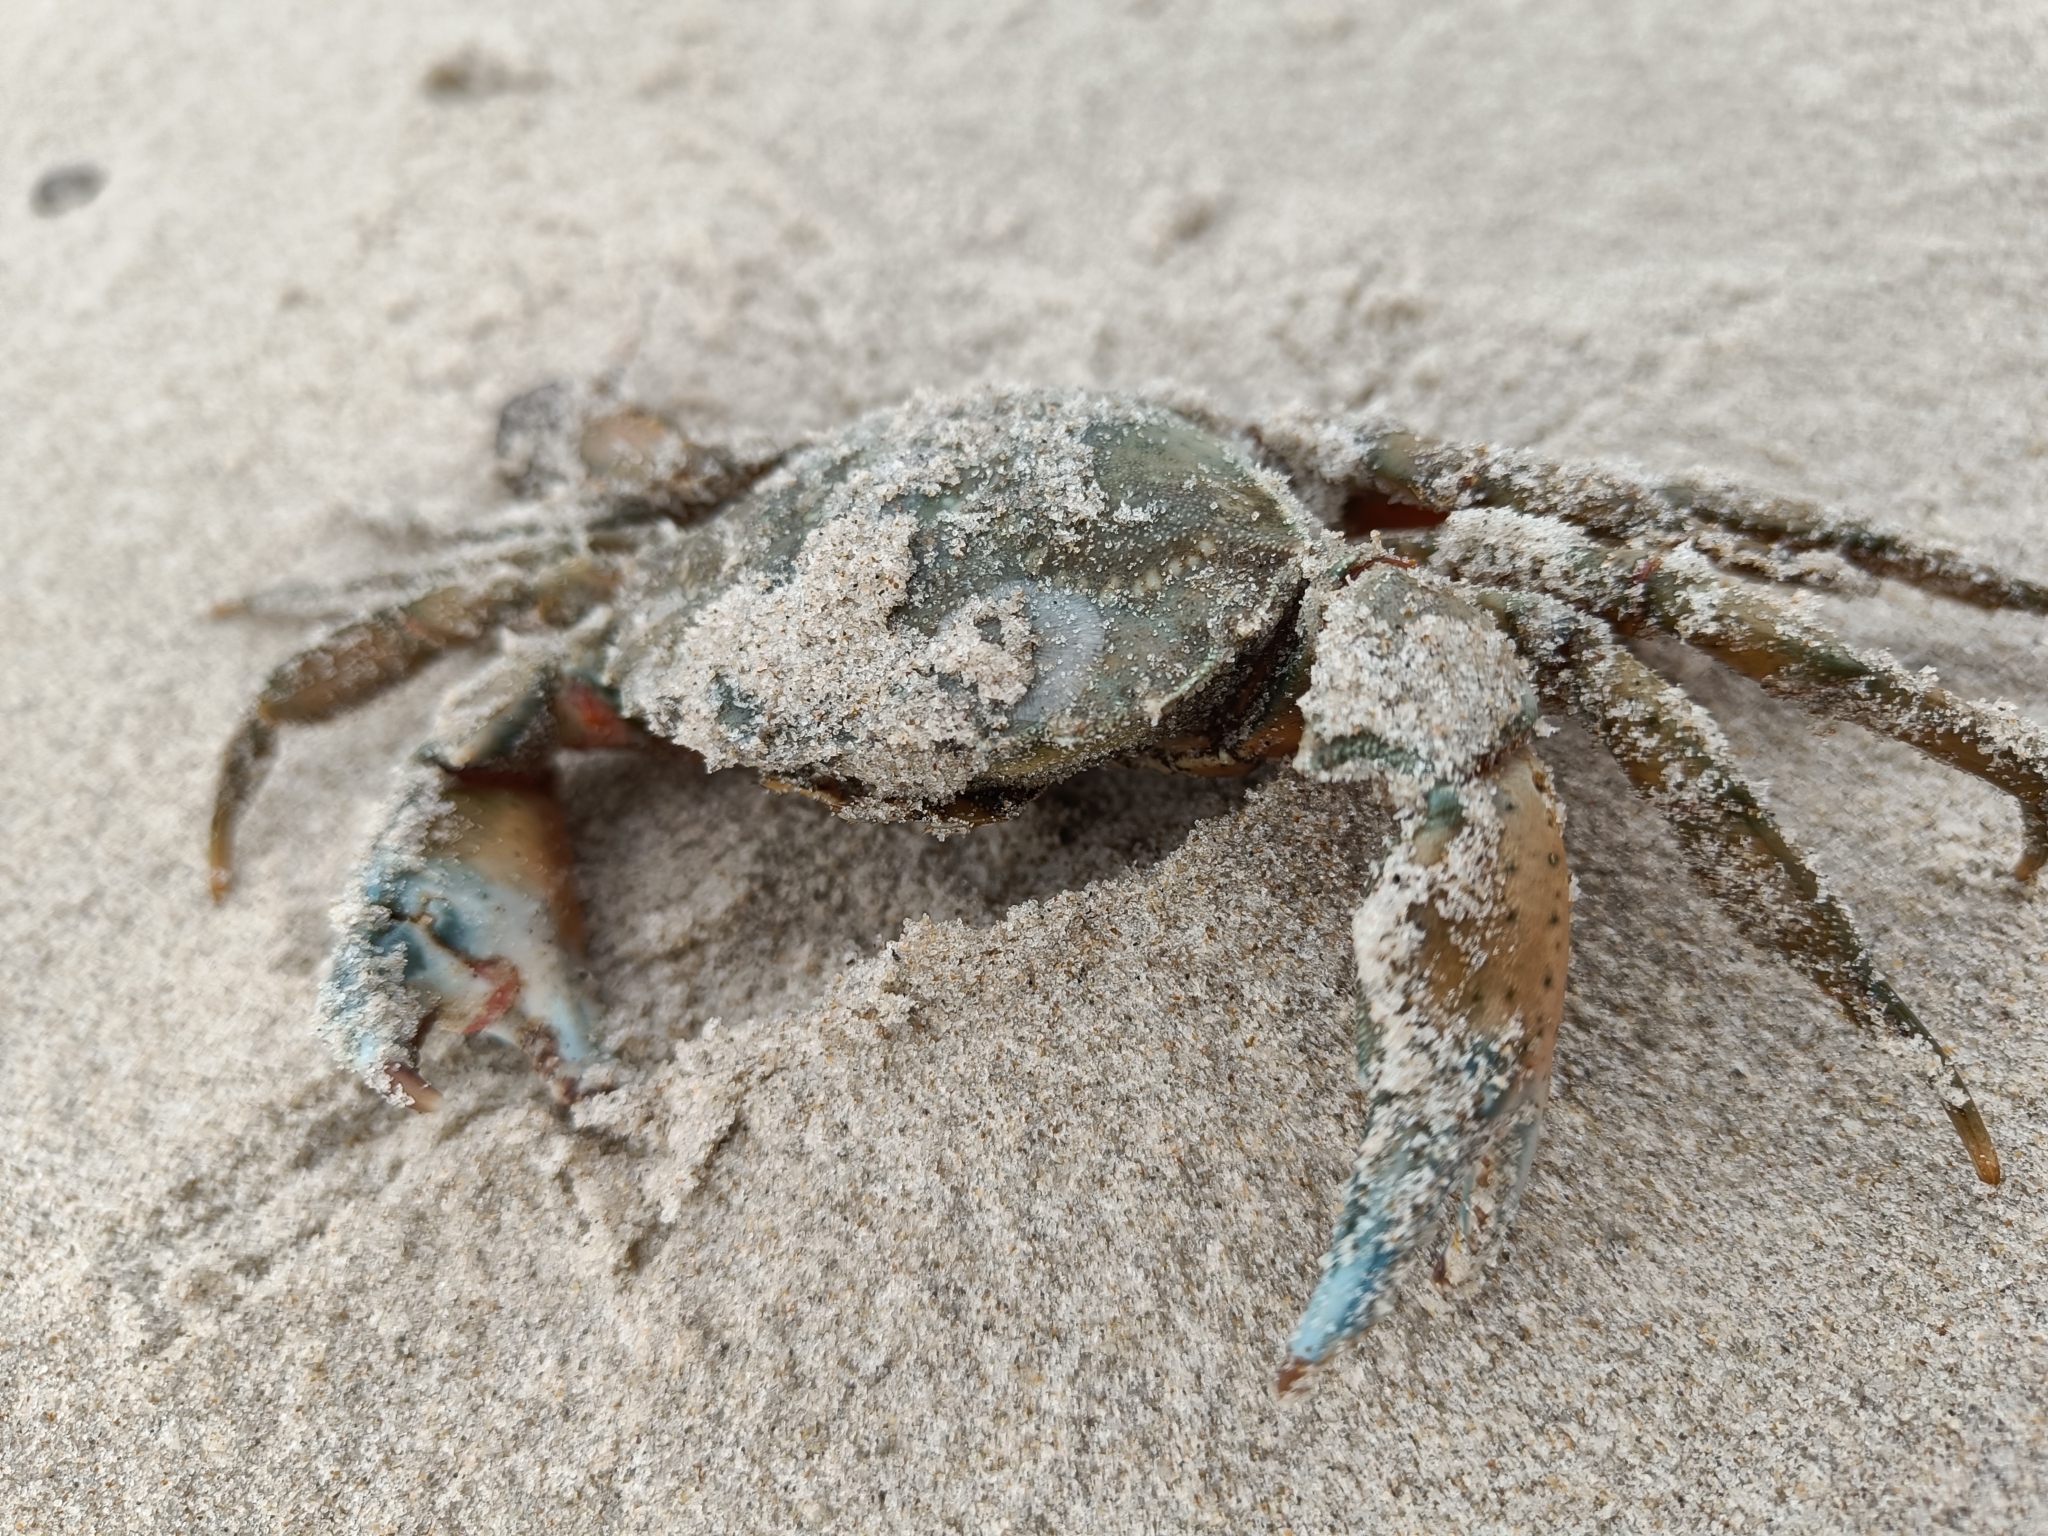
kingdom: Animalia
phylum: Arthropoda
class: Malacostraca
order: Decapoda
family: Carcinidae
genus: Carcinus
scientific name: Carcinus maenas
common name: European green crab
